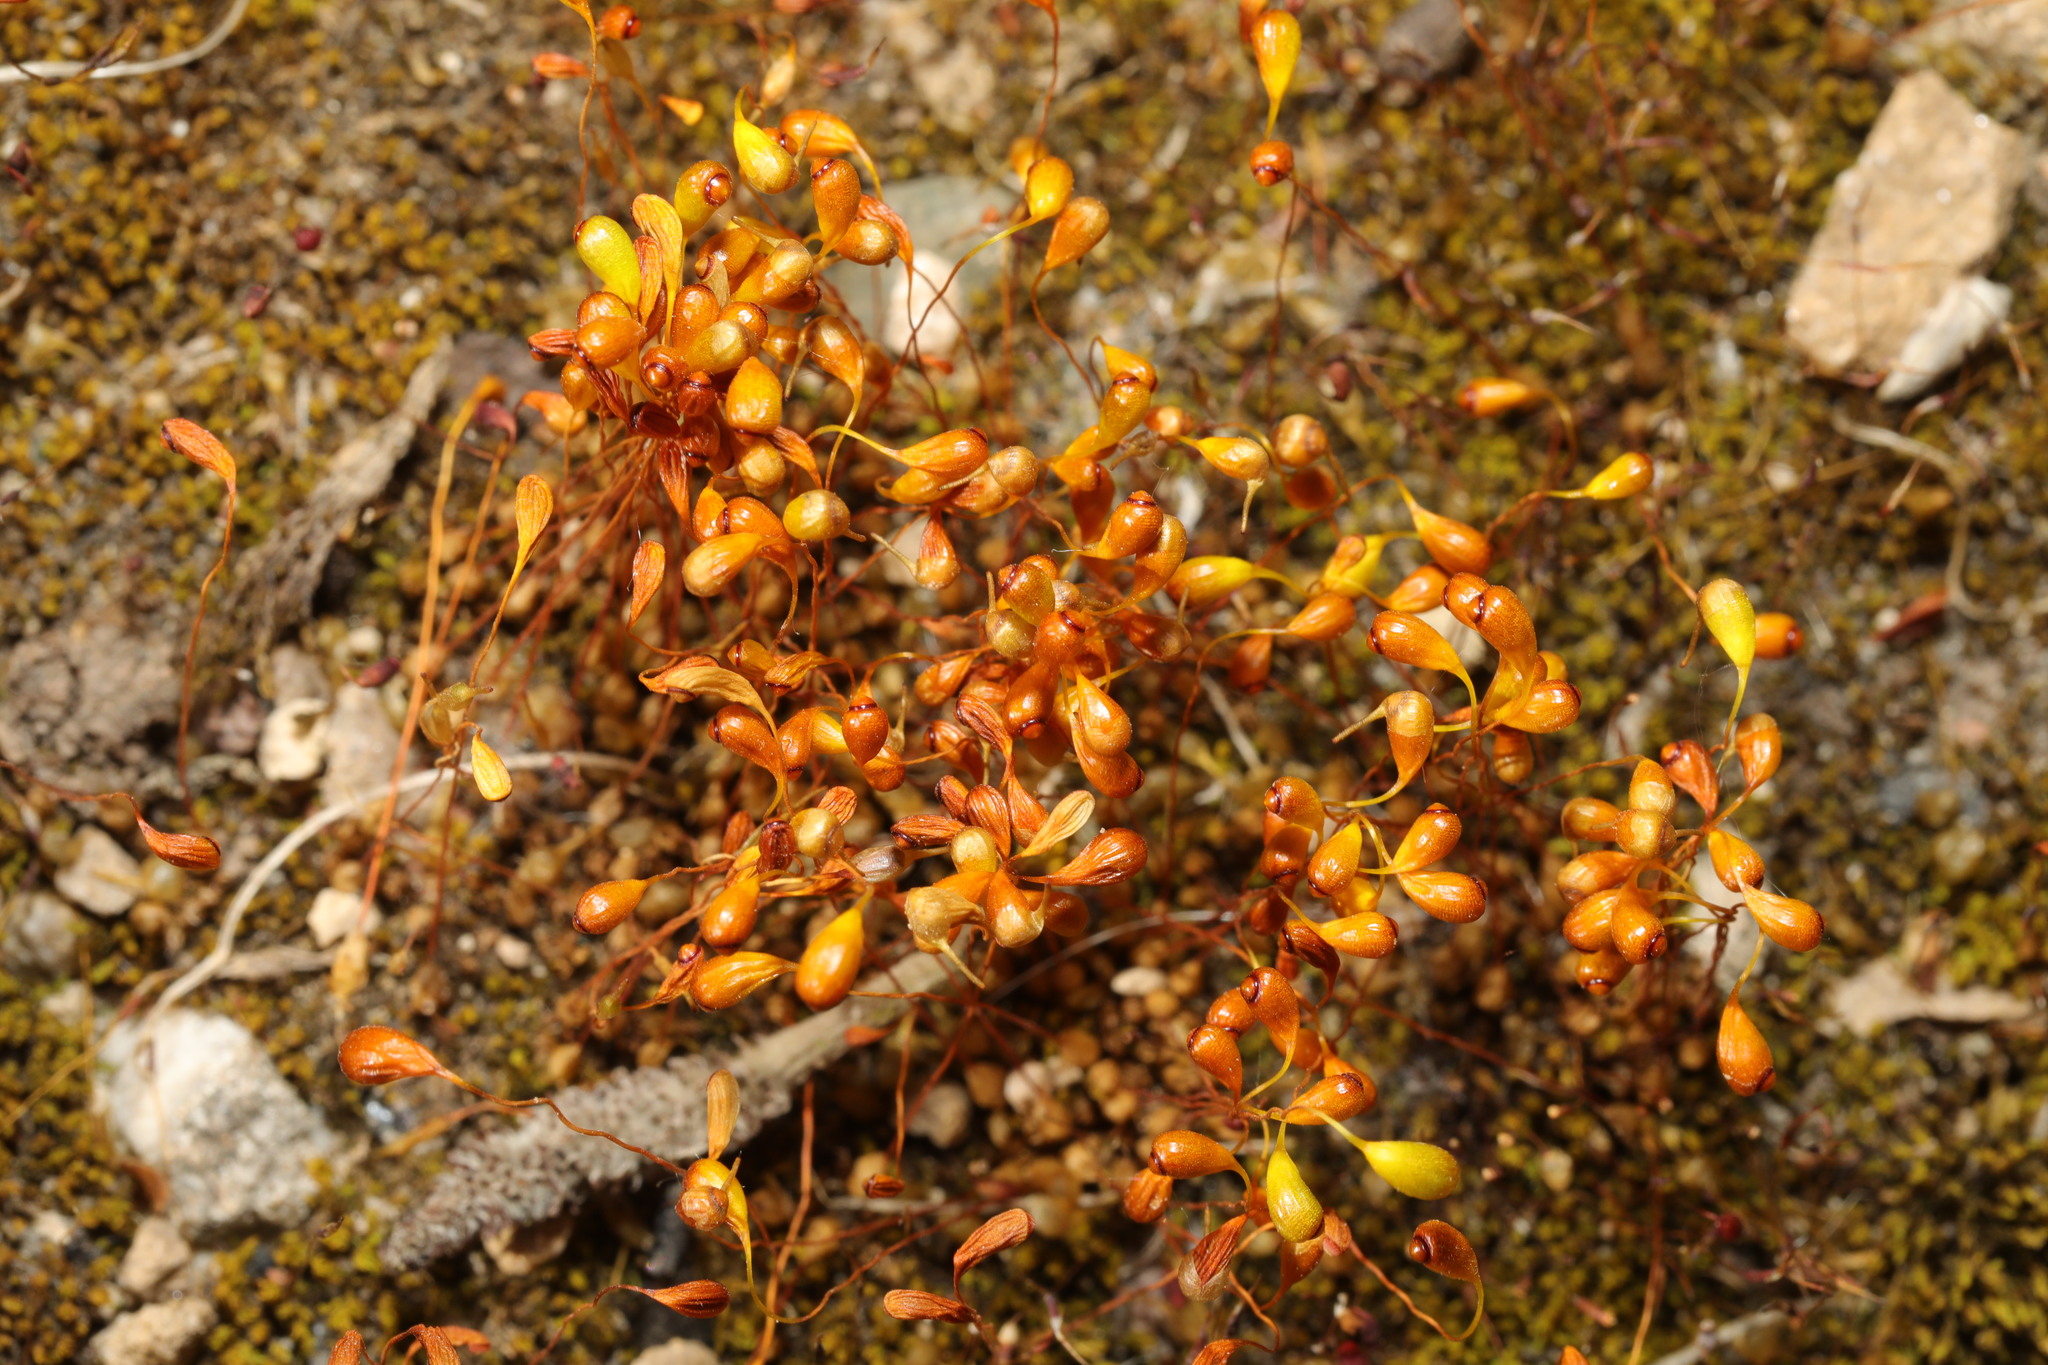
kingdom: Plantae
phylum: Bryophyta
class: Bryopsida
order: Funariales
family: Funariaceae
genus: Funaria
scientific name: Funaria hygrometrica
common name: Common cord moss
